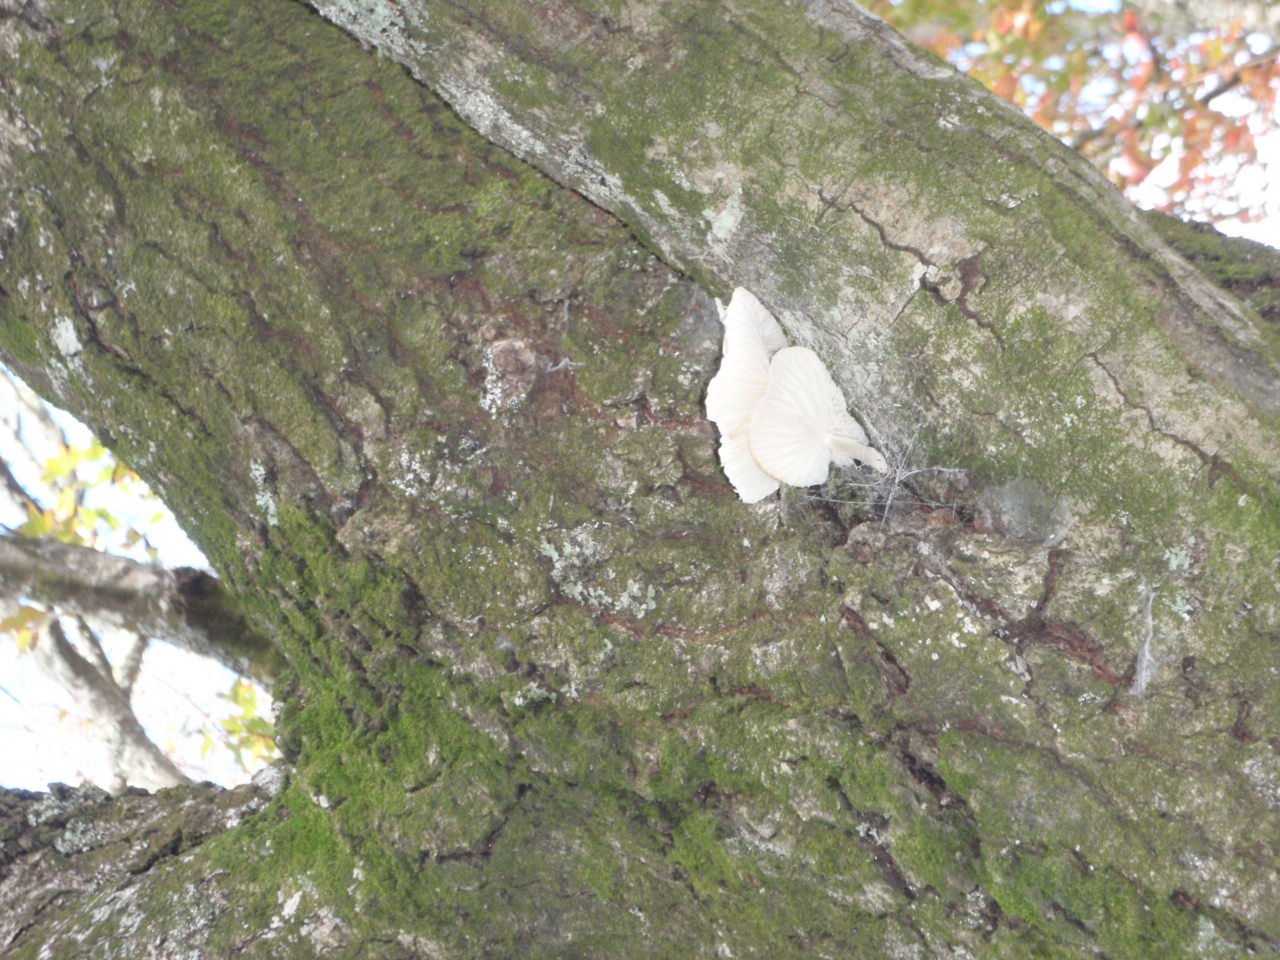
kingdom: Fungi
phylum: Basidiomycota
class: Agaricomycetes
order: Agaricales
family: Physalacriaceae
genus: Oudemansiella
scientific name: Oudemansiella australis
